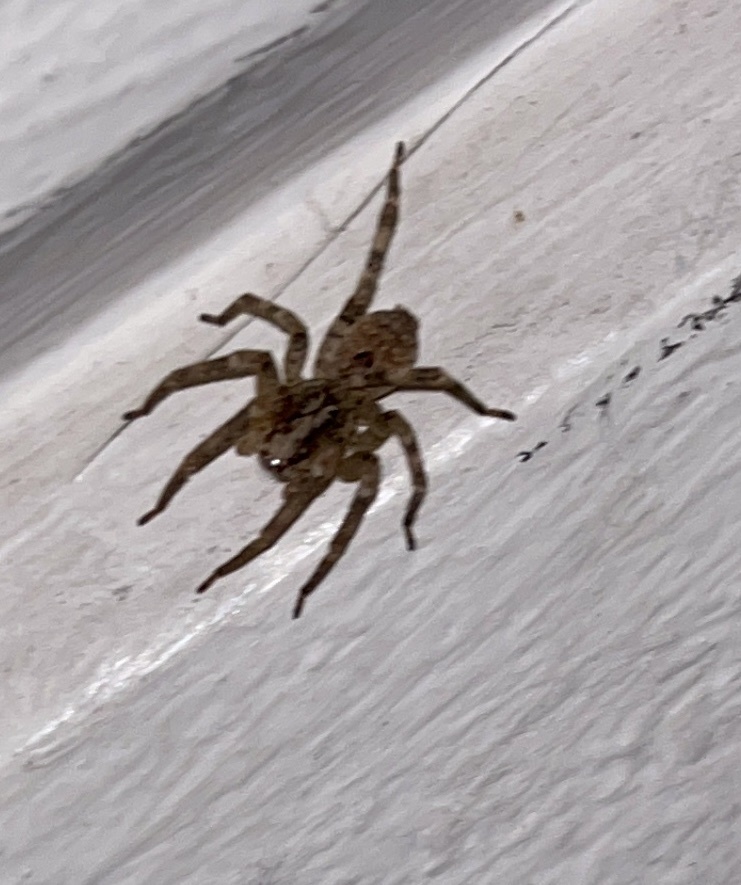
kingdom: Animalia
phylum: Arthropoda
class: Arachnida
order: Araneae
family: Zoropsidae
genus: Zoropsis
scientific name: Zoropsis spinimana
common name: Zoropsid spider
